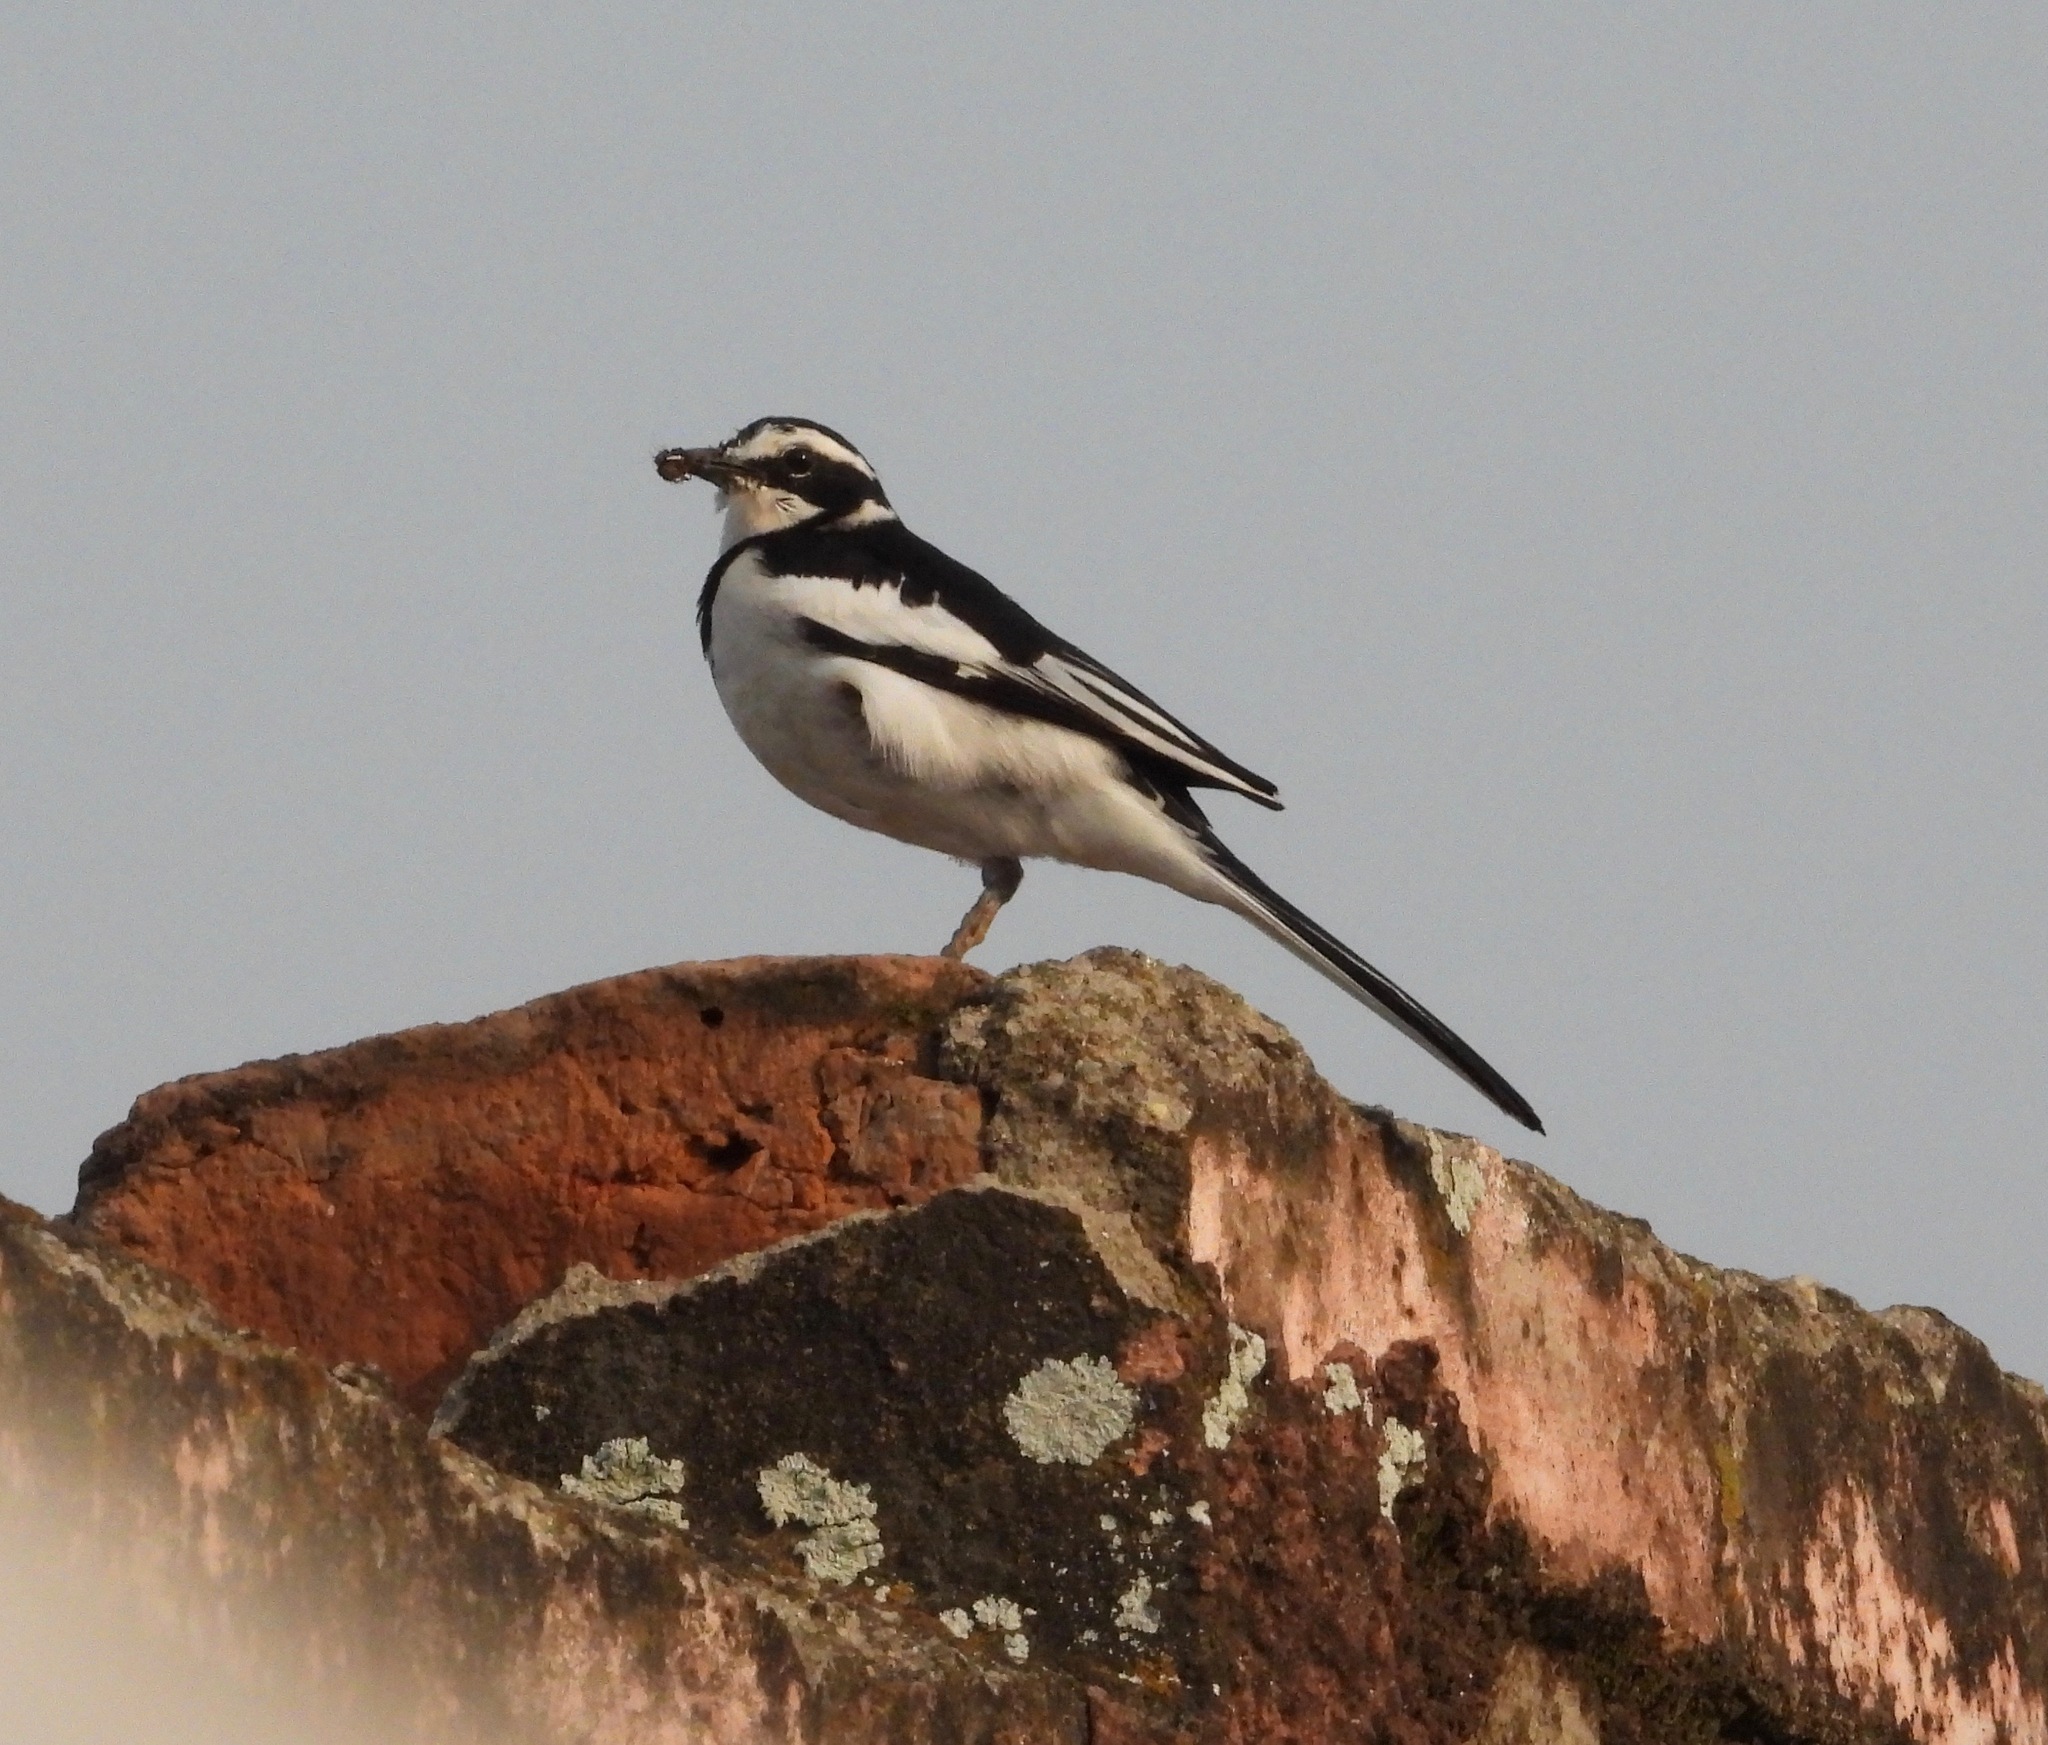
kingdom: Animalia
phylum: Chordata
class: Aves
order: Passeriformes
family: Motacillidae
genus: Motacilla
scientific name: Motacilla aguimp
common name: African pied wagtail
